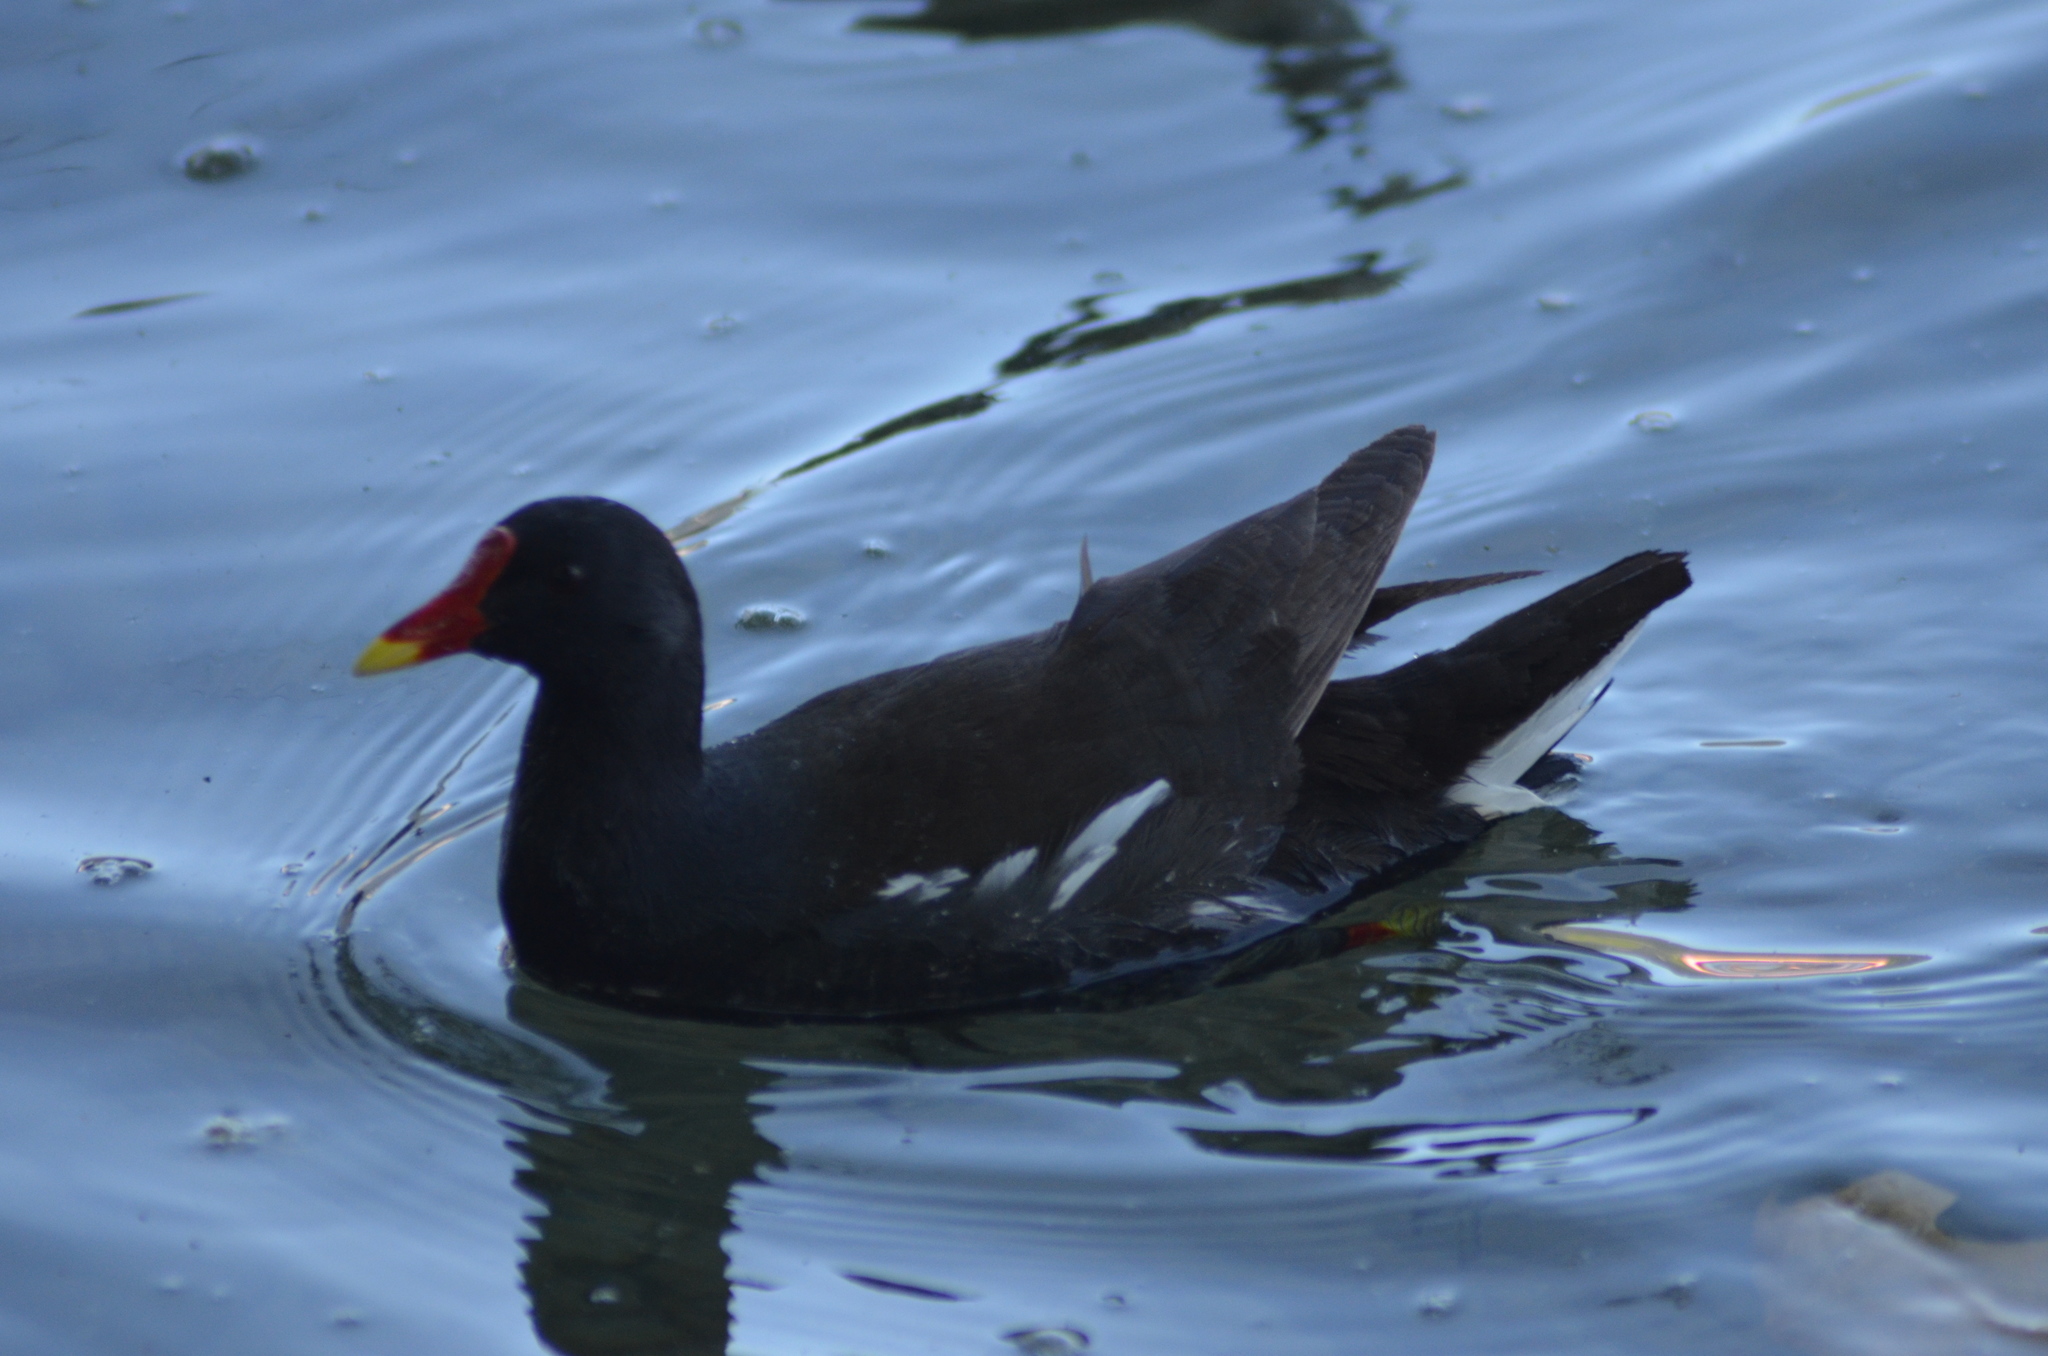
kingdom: Animalia
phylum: Chordata
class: Aves
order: Gruiformes
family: Rallidae
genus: Gallinula
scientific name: Gallinula chloropus
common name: Common moorhen
